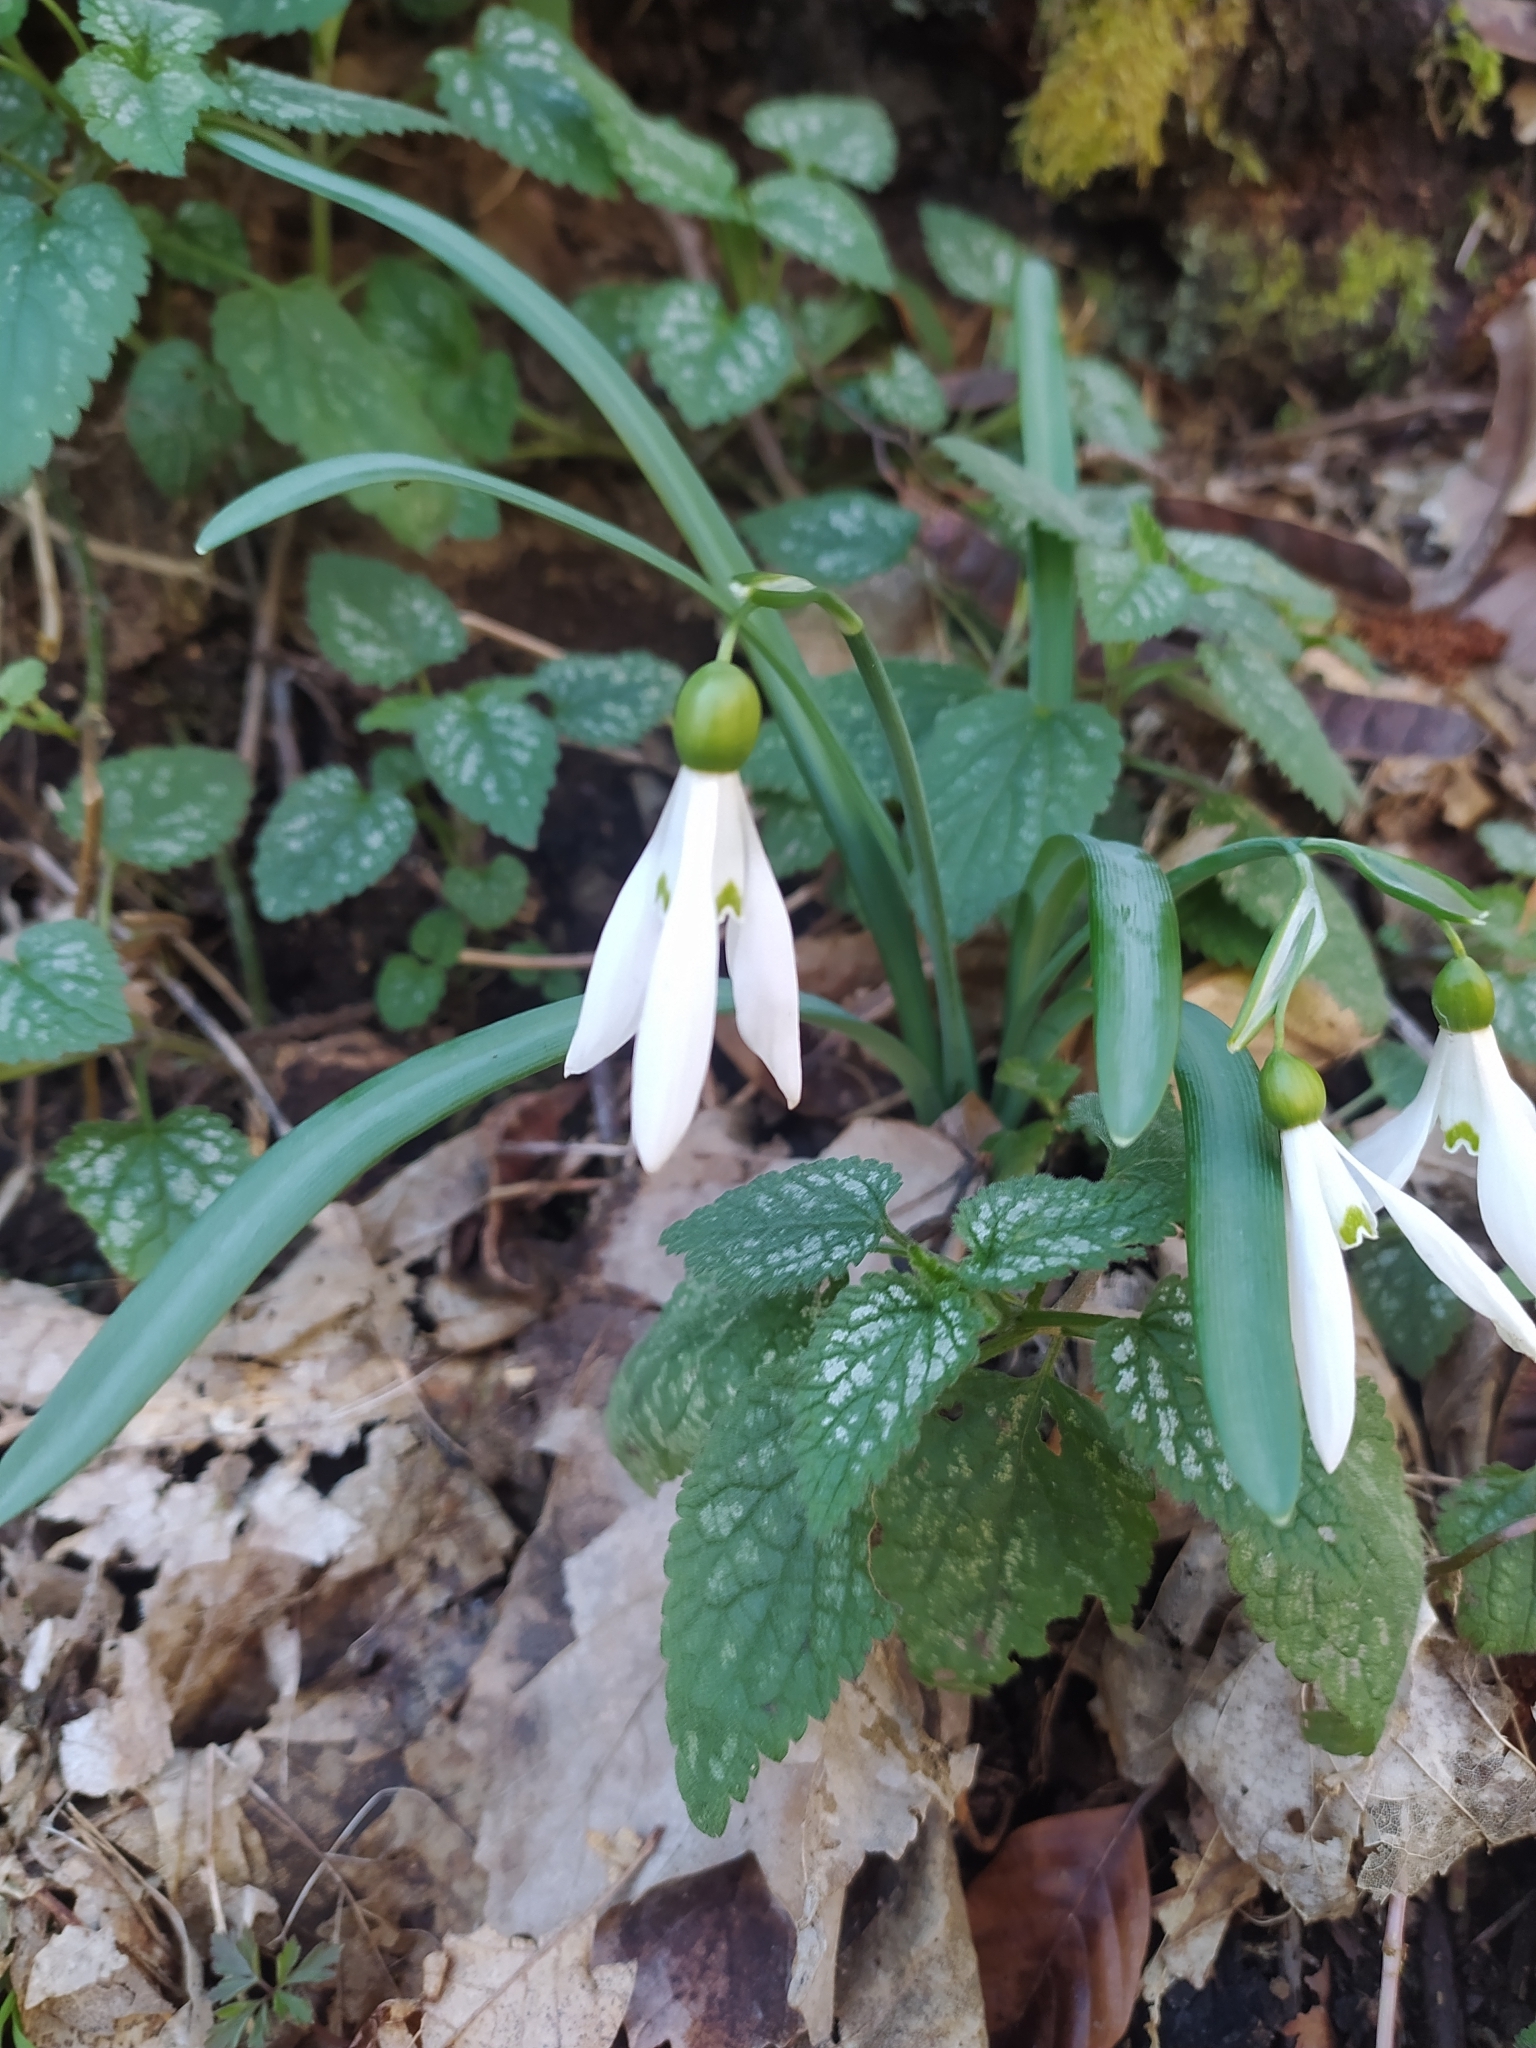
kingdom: Plantae
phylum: Tracheophyta
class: Liliopsida
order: Asparagales
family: Amaryllidaceae
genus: Galanthus
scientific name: Galanthus nivalis
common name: Snowdrop
